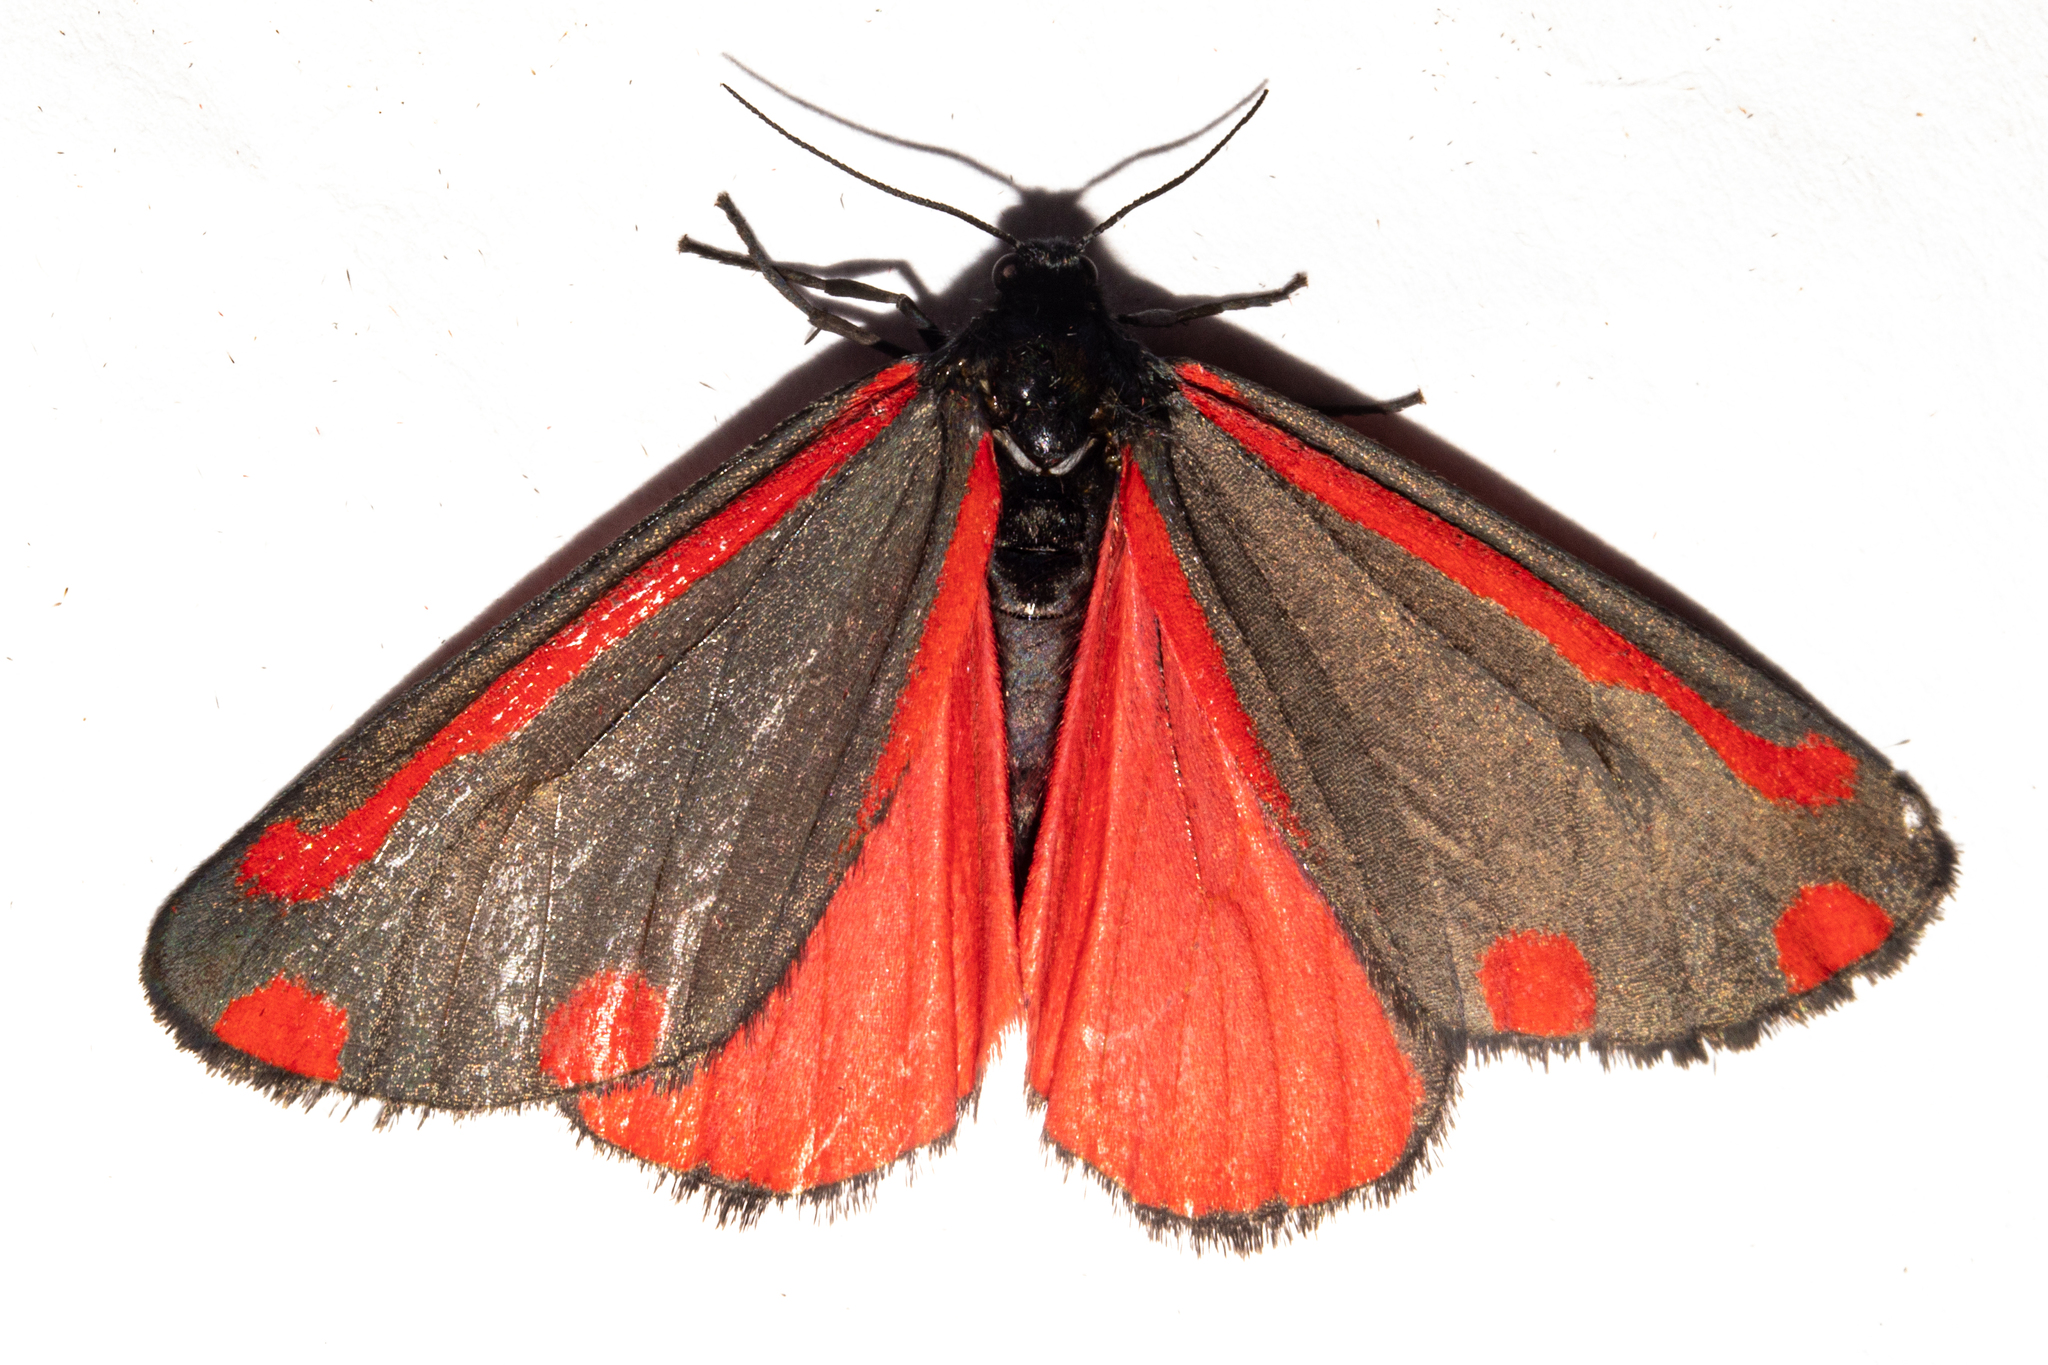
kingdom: Animalia
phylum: Arthropoda
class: Insecta
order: Lepidoptera
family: Erebidae
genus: Tyria
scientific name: Tyria jacobaeae
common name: Cinnabar
